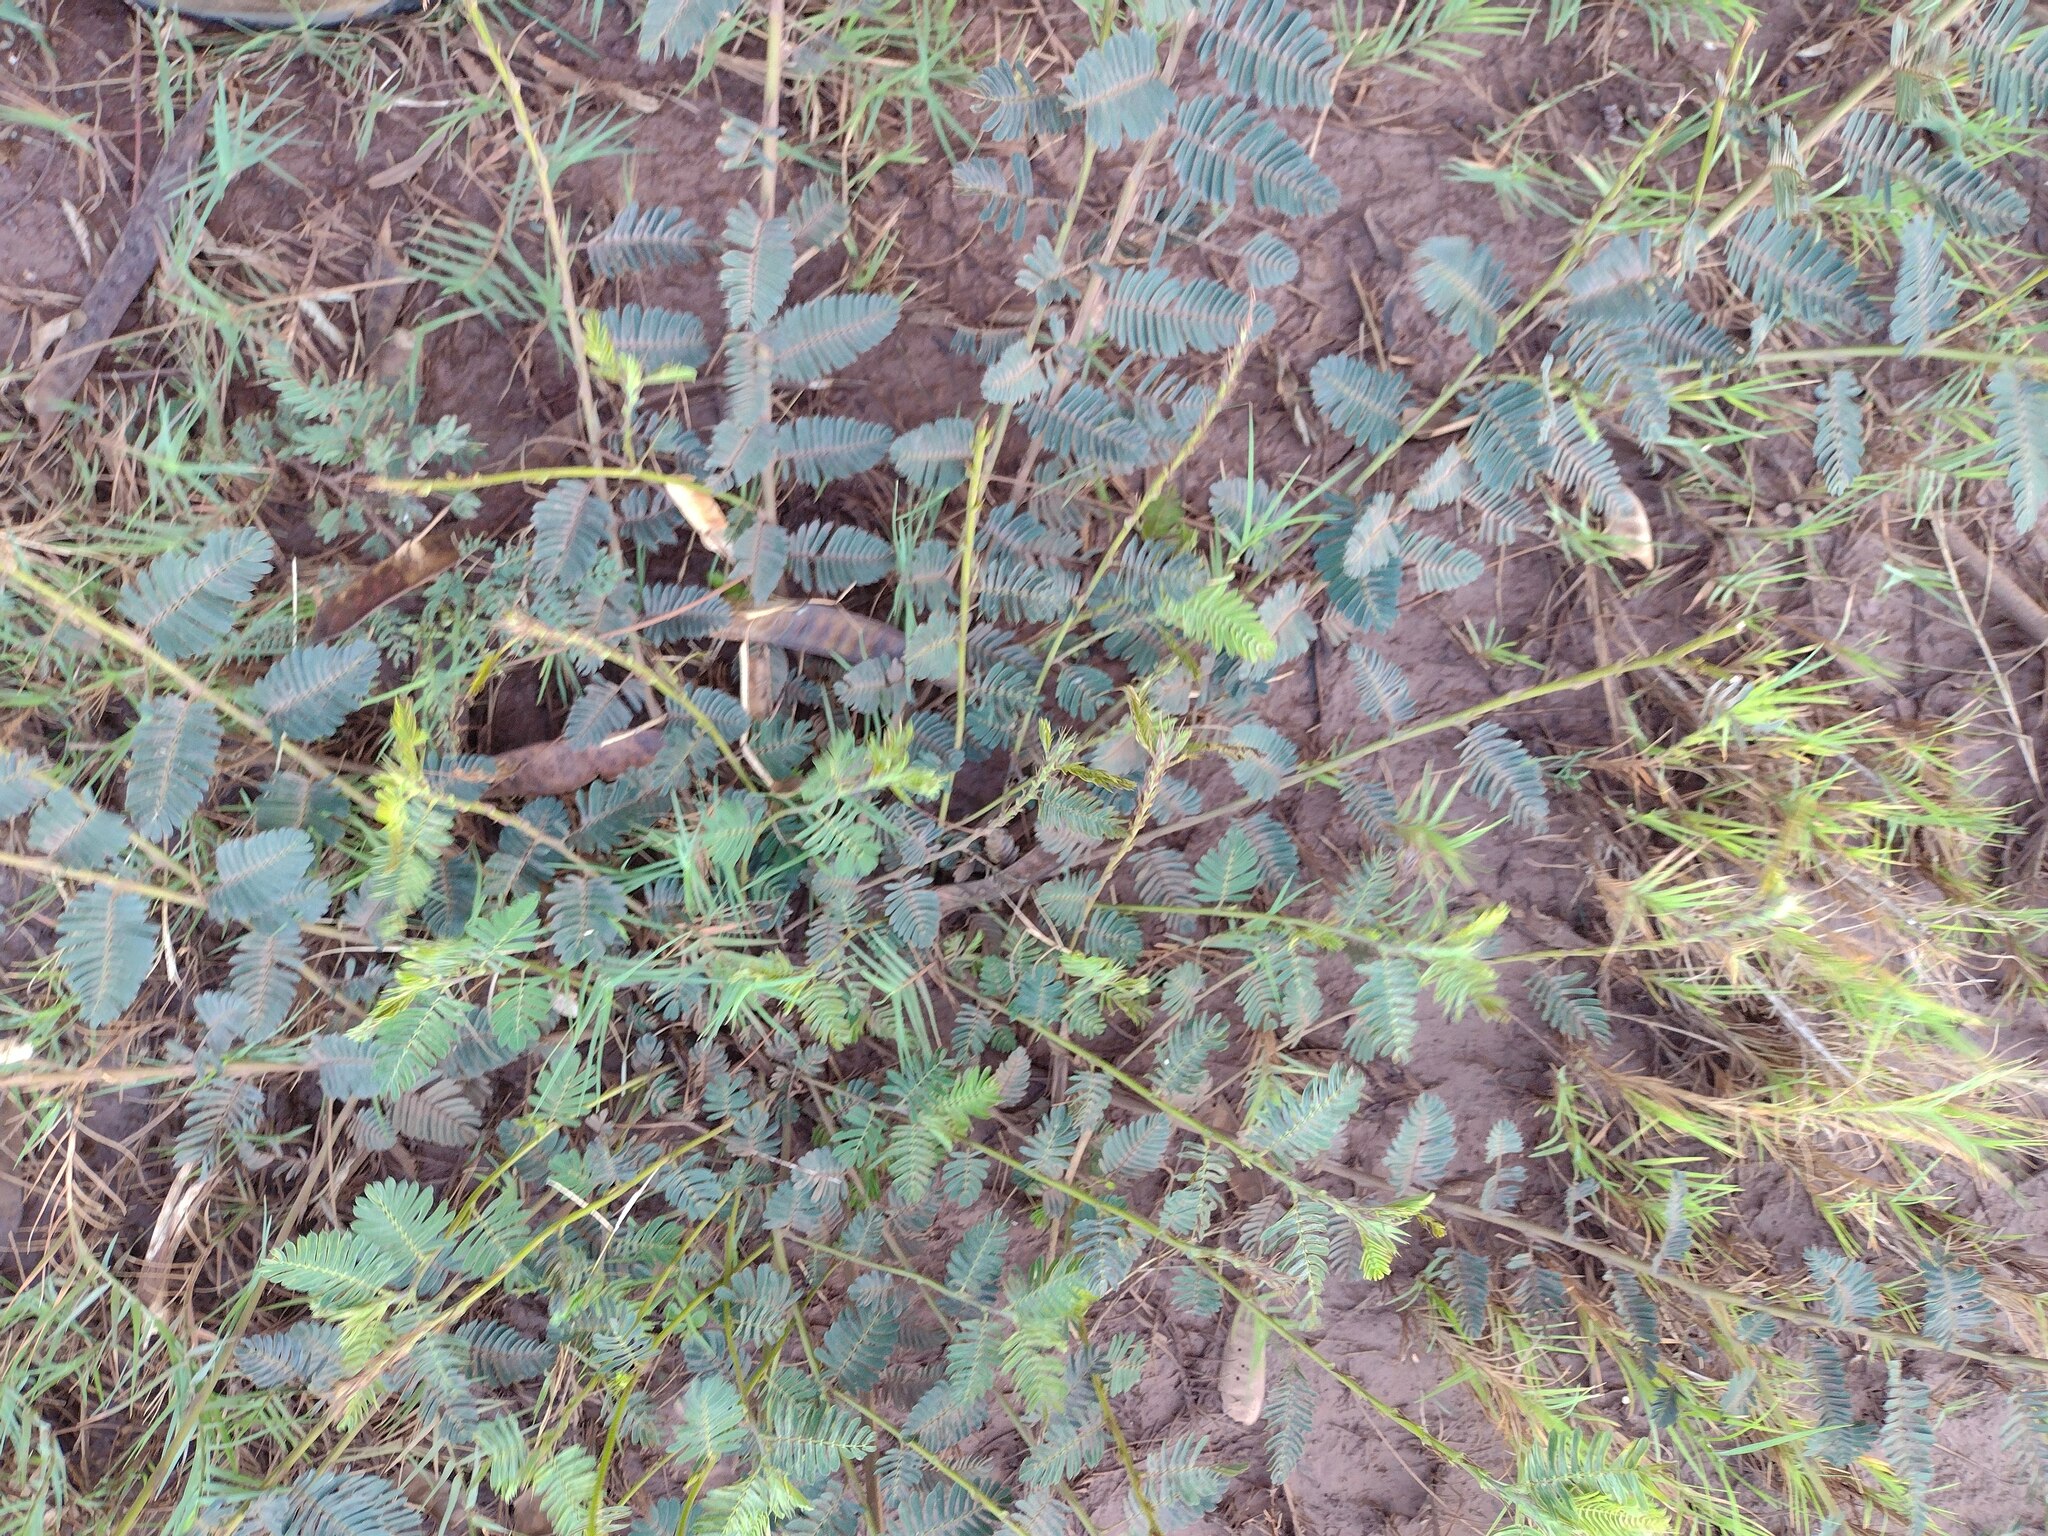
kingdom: Plantae
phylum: Tracheophyta
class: Magnoliopsida
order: Fabales
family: Fabaceae
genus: Chamaecrista
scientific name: Chamaecrista nictitans
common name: Sensitive cassia
